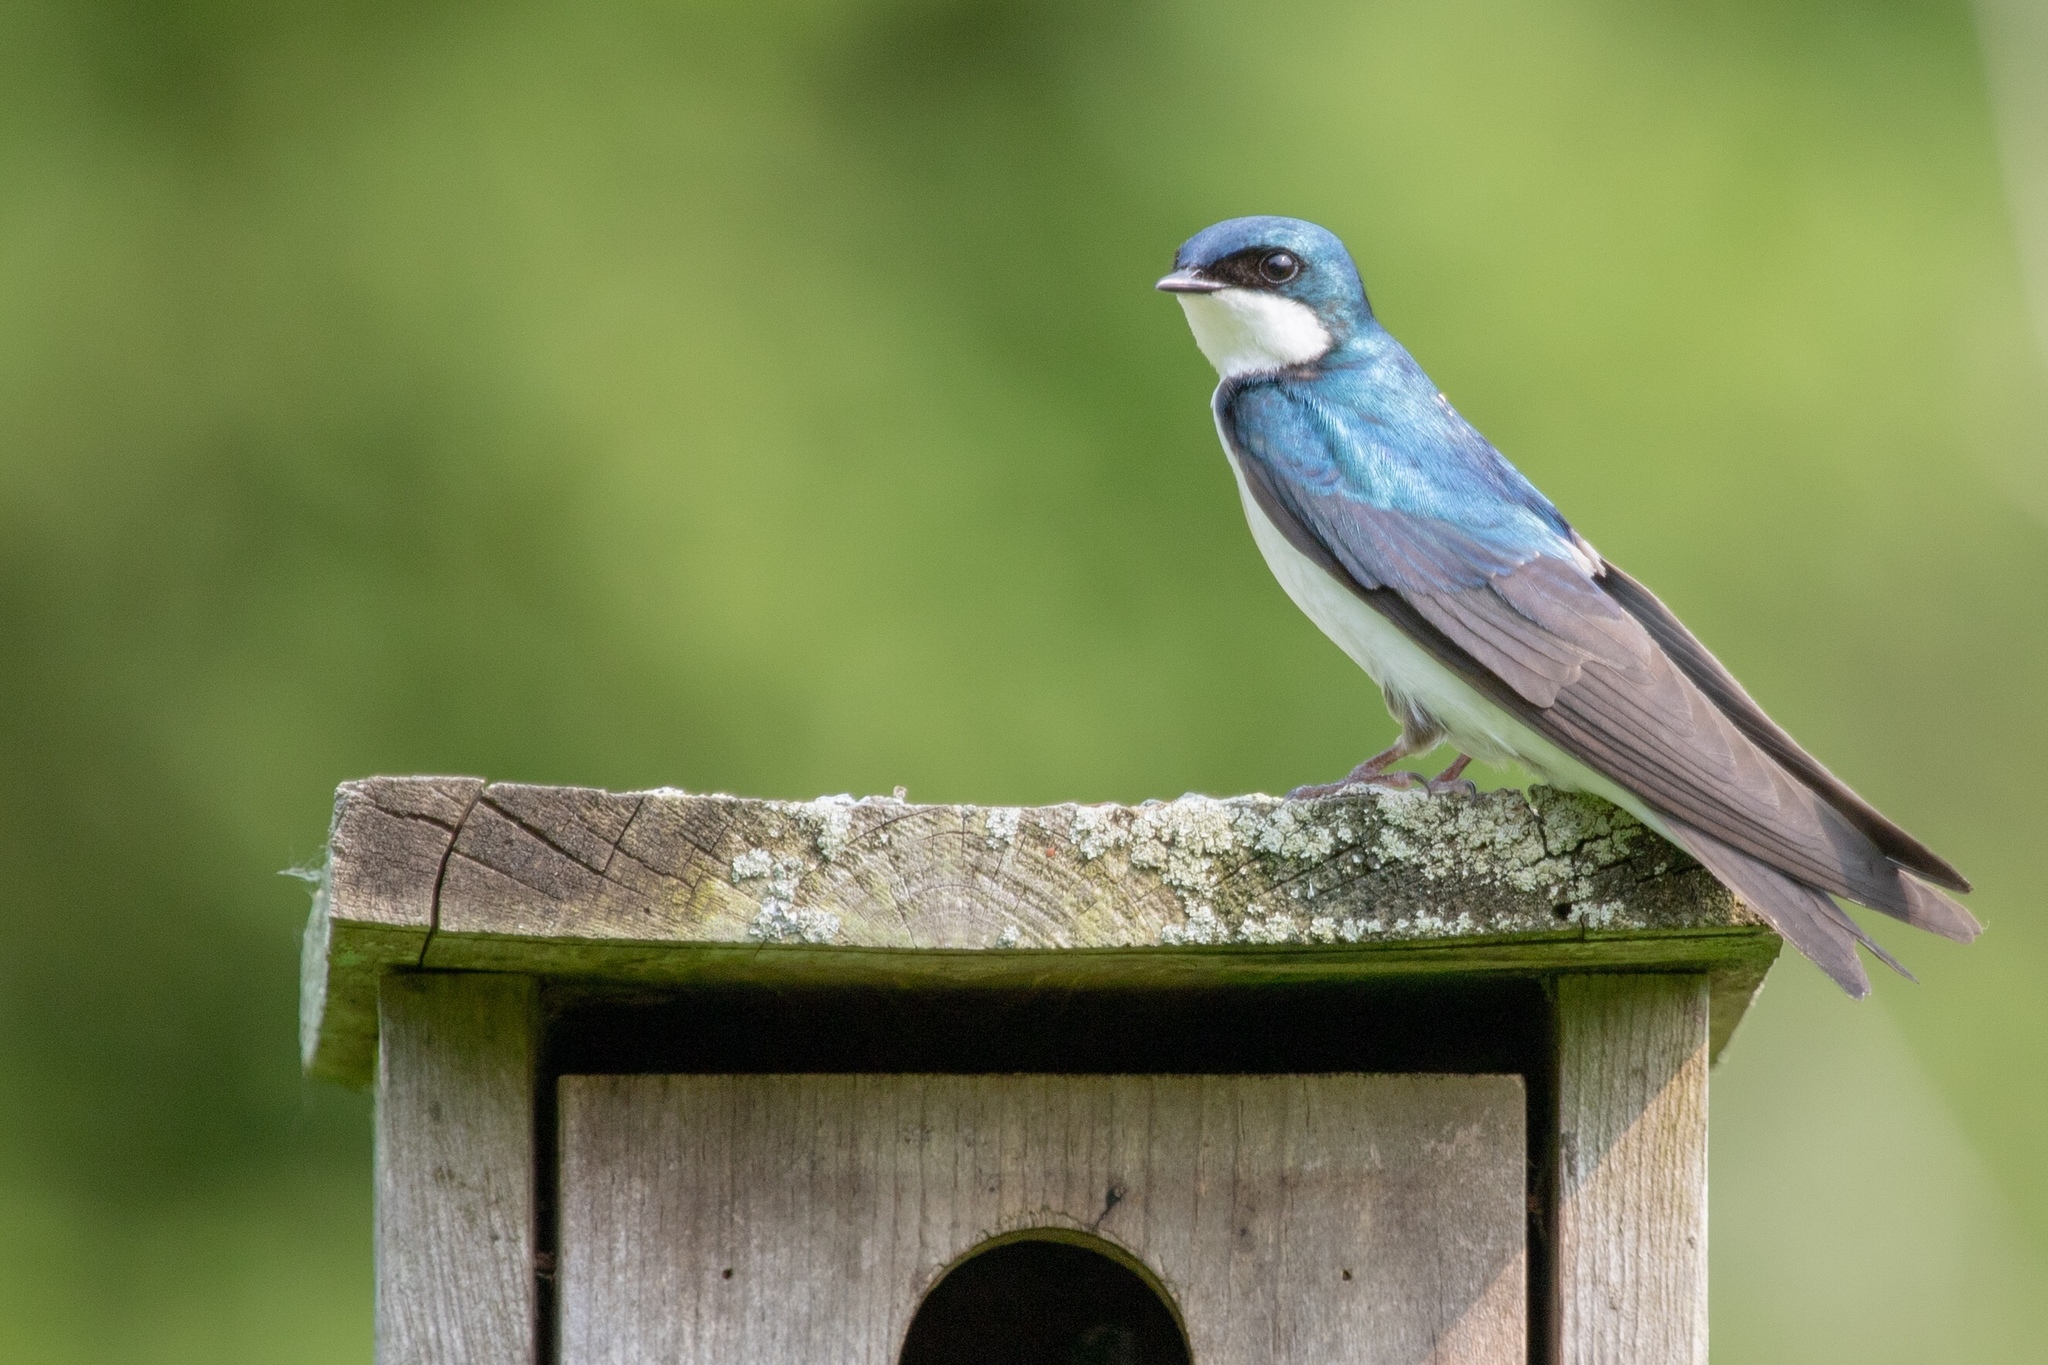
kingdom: Animalia
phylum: Chordata
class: Aves
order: Passeriformes
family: Hirundinidae
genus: Tachycineta
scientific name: Tachycineta bicolor
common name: Tree swallow
